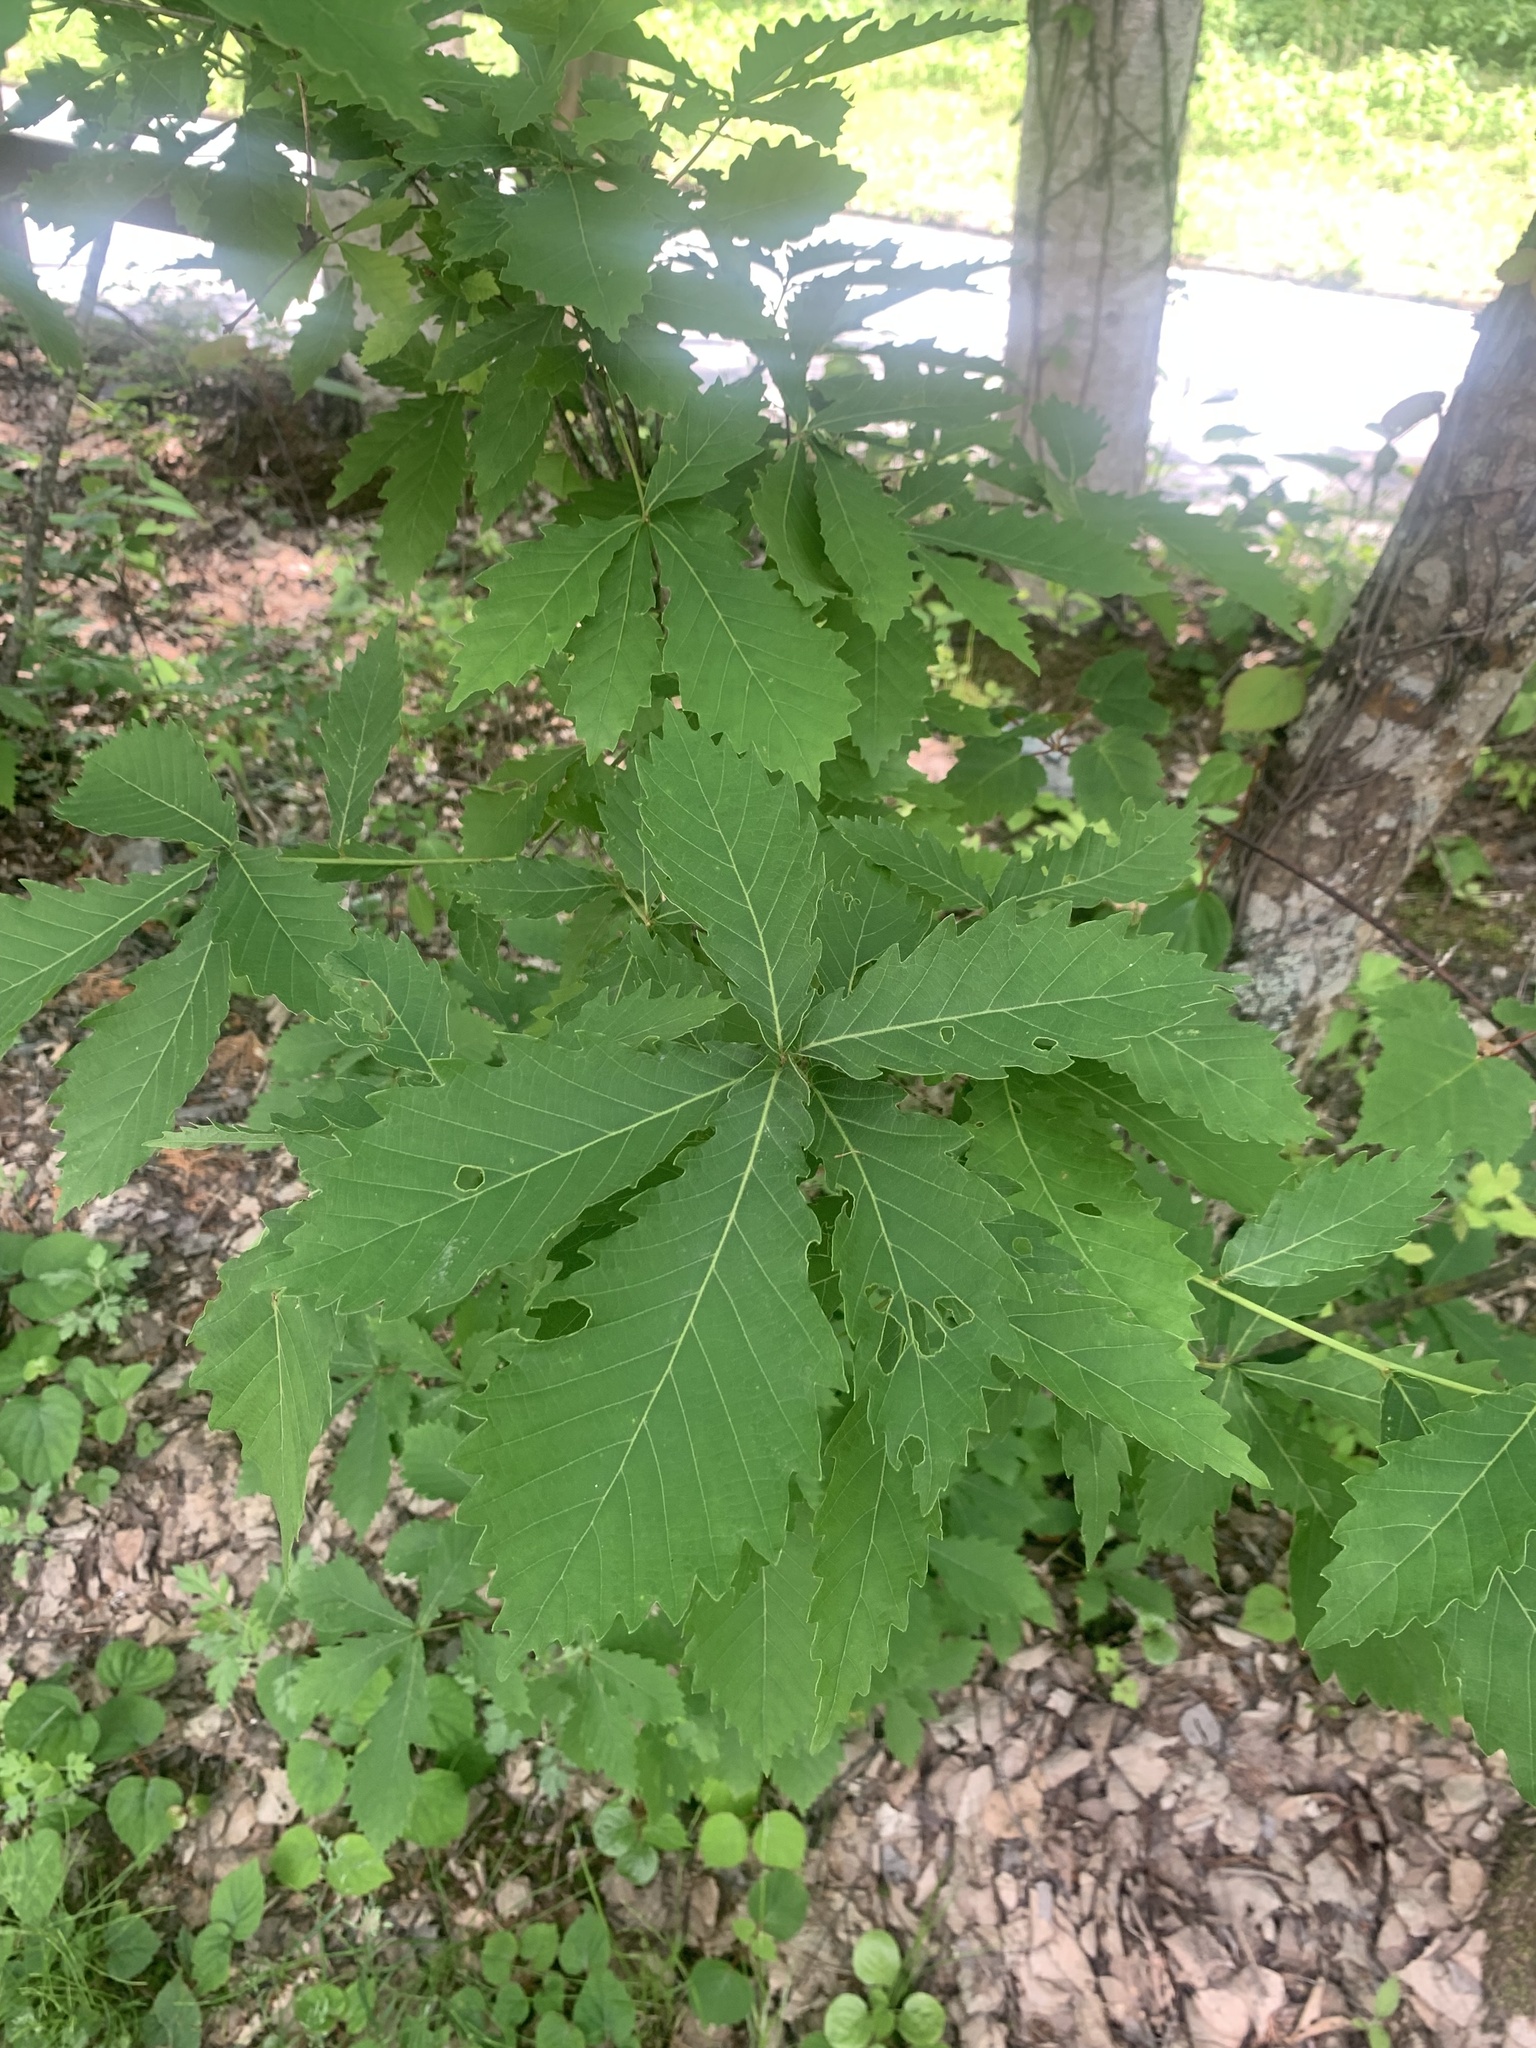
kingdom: Plantae
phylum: Tracheophyta
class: Magnoliopsida
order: Fagales
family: Fagaceae
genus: Quercus
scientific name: Quercus crispula
